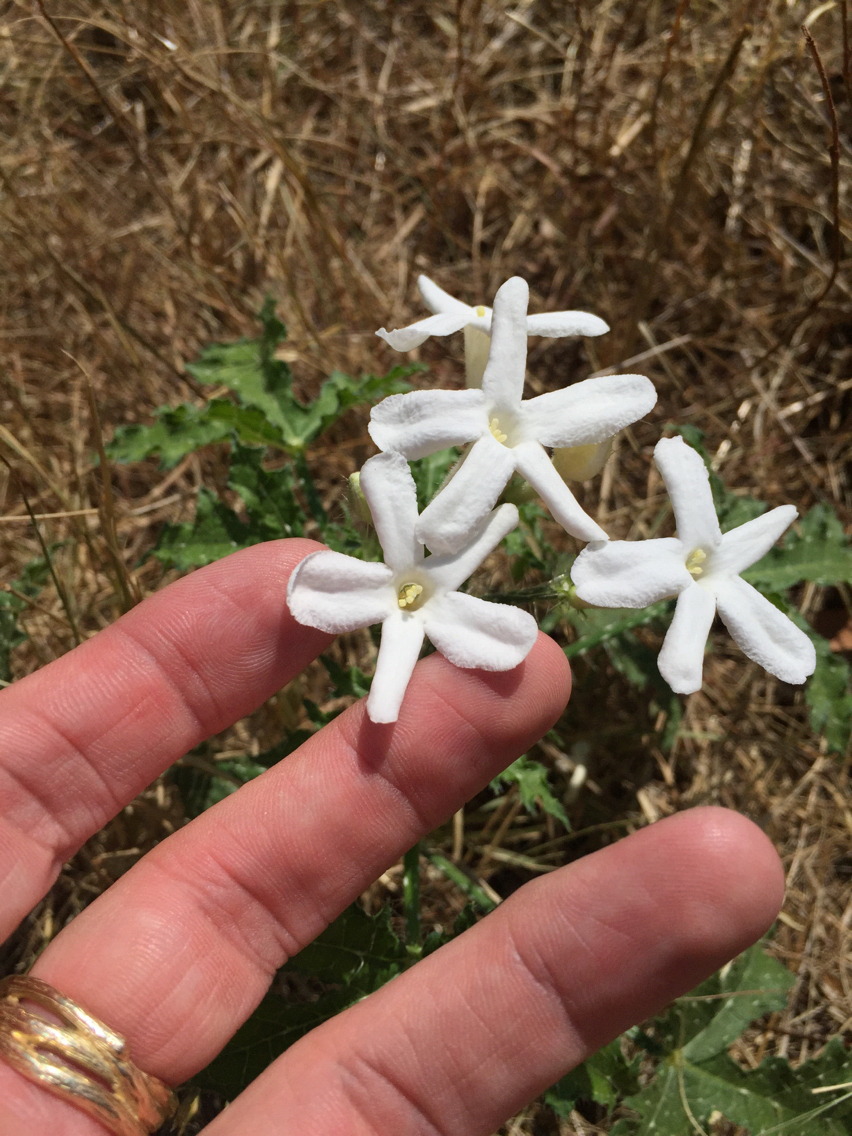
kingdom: Plantae
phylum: Tracheophyta
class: Magnoliopsida
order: Malpighiales
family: Euphorbiaceae
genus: Cnidoscolus
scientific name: Cnidoscolus texanus
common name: Texas bull-nettle
